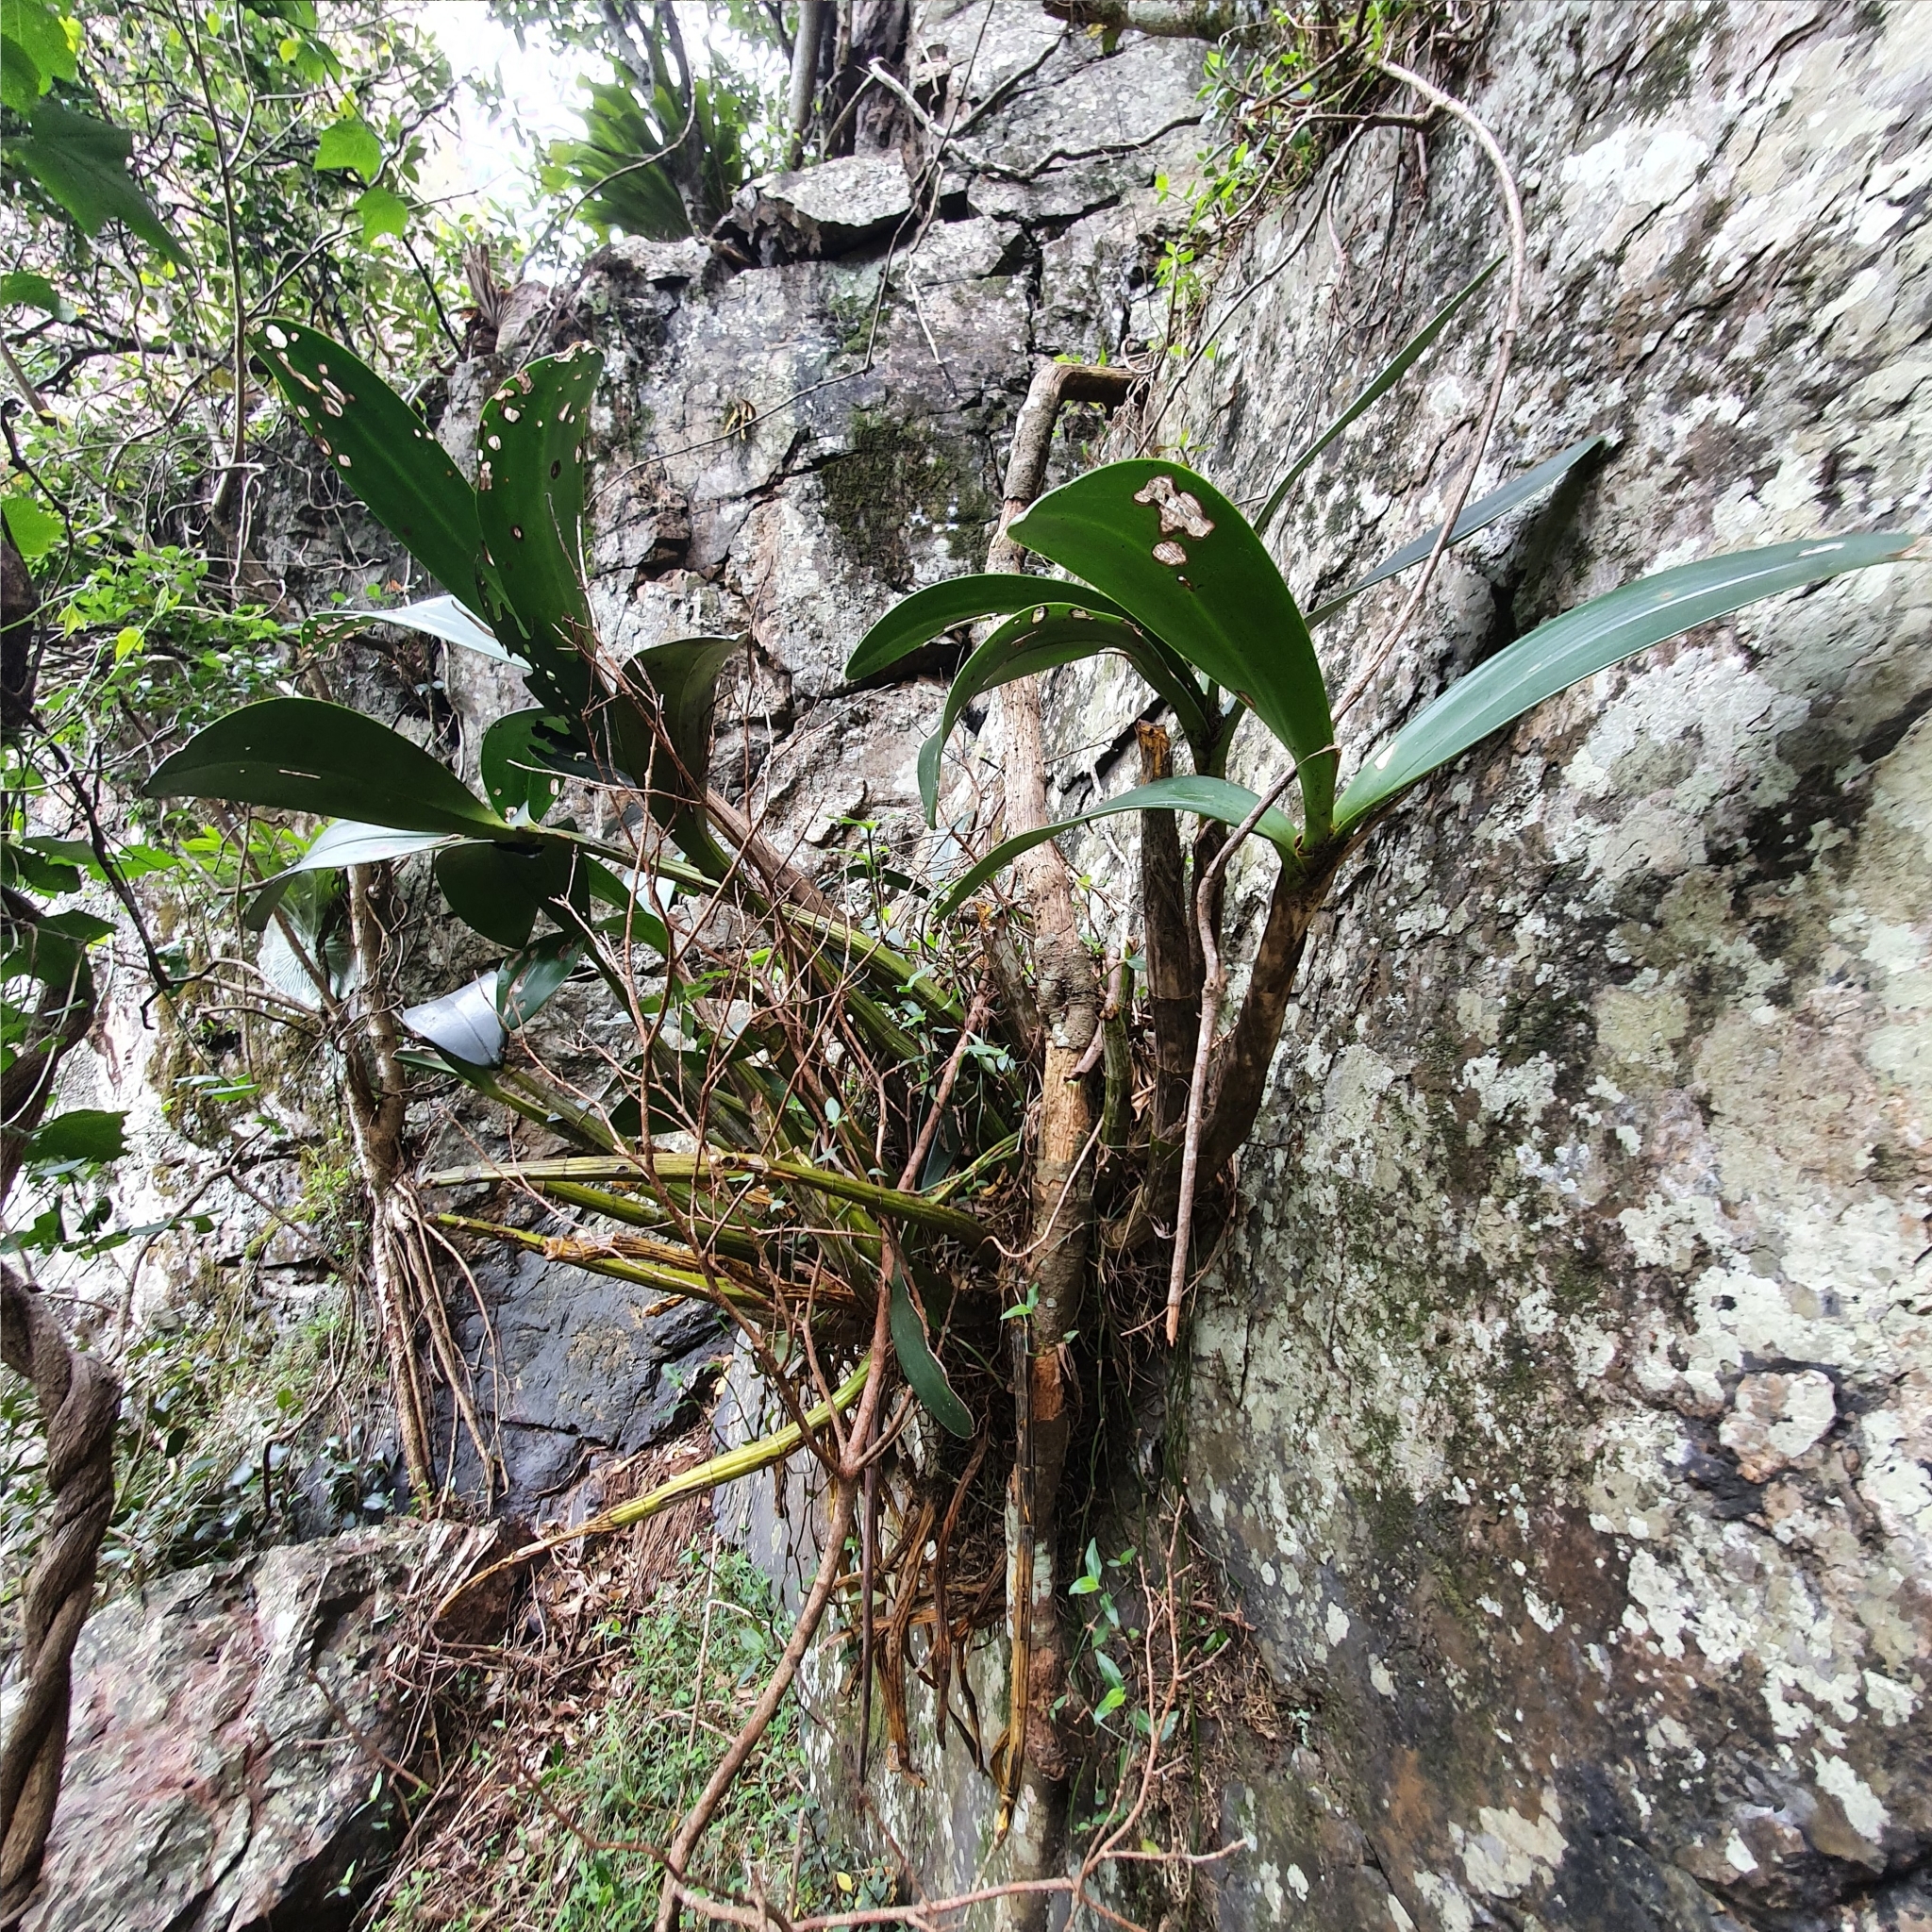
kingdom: Plantae
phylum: Tracheophyta
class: Liliopsida
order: Asparagales
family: Orchidaceae
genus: Dendrobium
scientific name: Dendrobium speciosum
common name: Rock-lily
